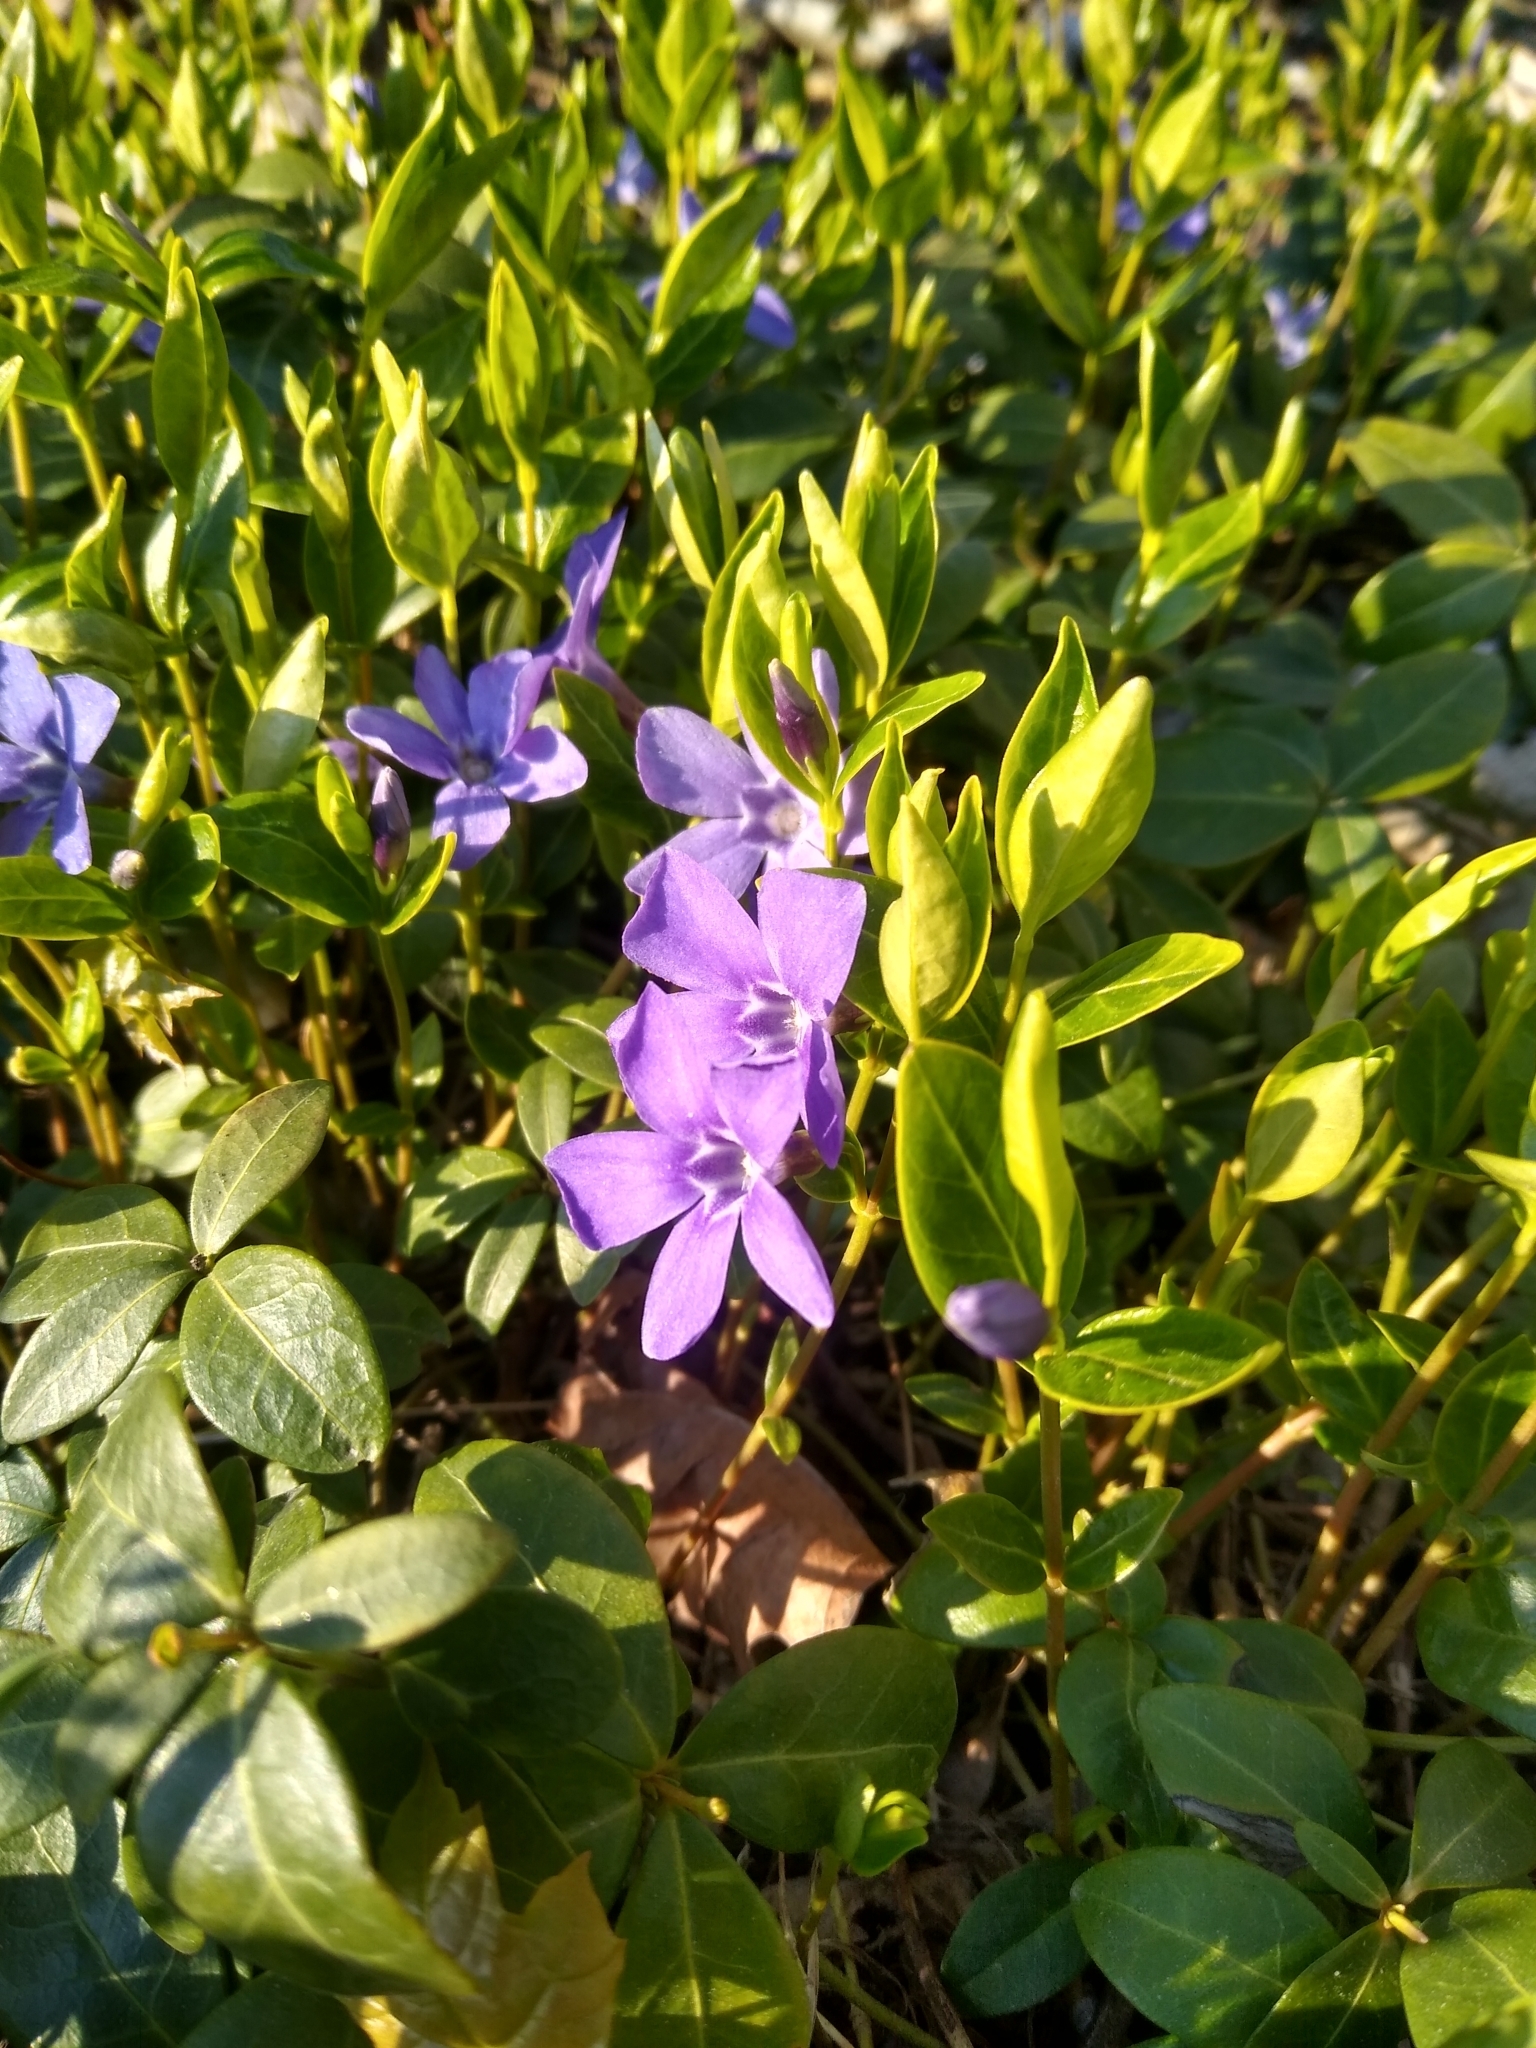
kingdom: Plantae
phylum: Tracheophyta
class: Magnoliopsida
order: Gentianales
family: Apocynaceae
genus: Vinca
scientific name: Vinca minor
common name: Lesser periwinkle
